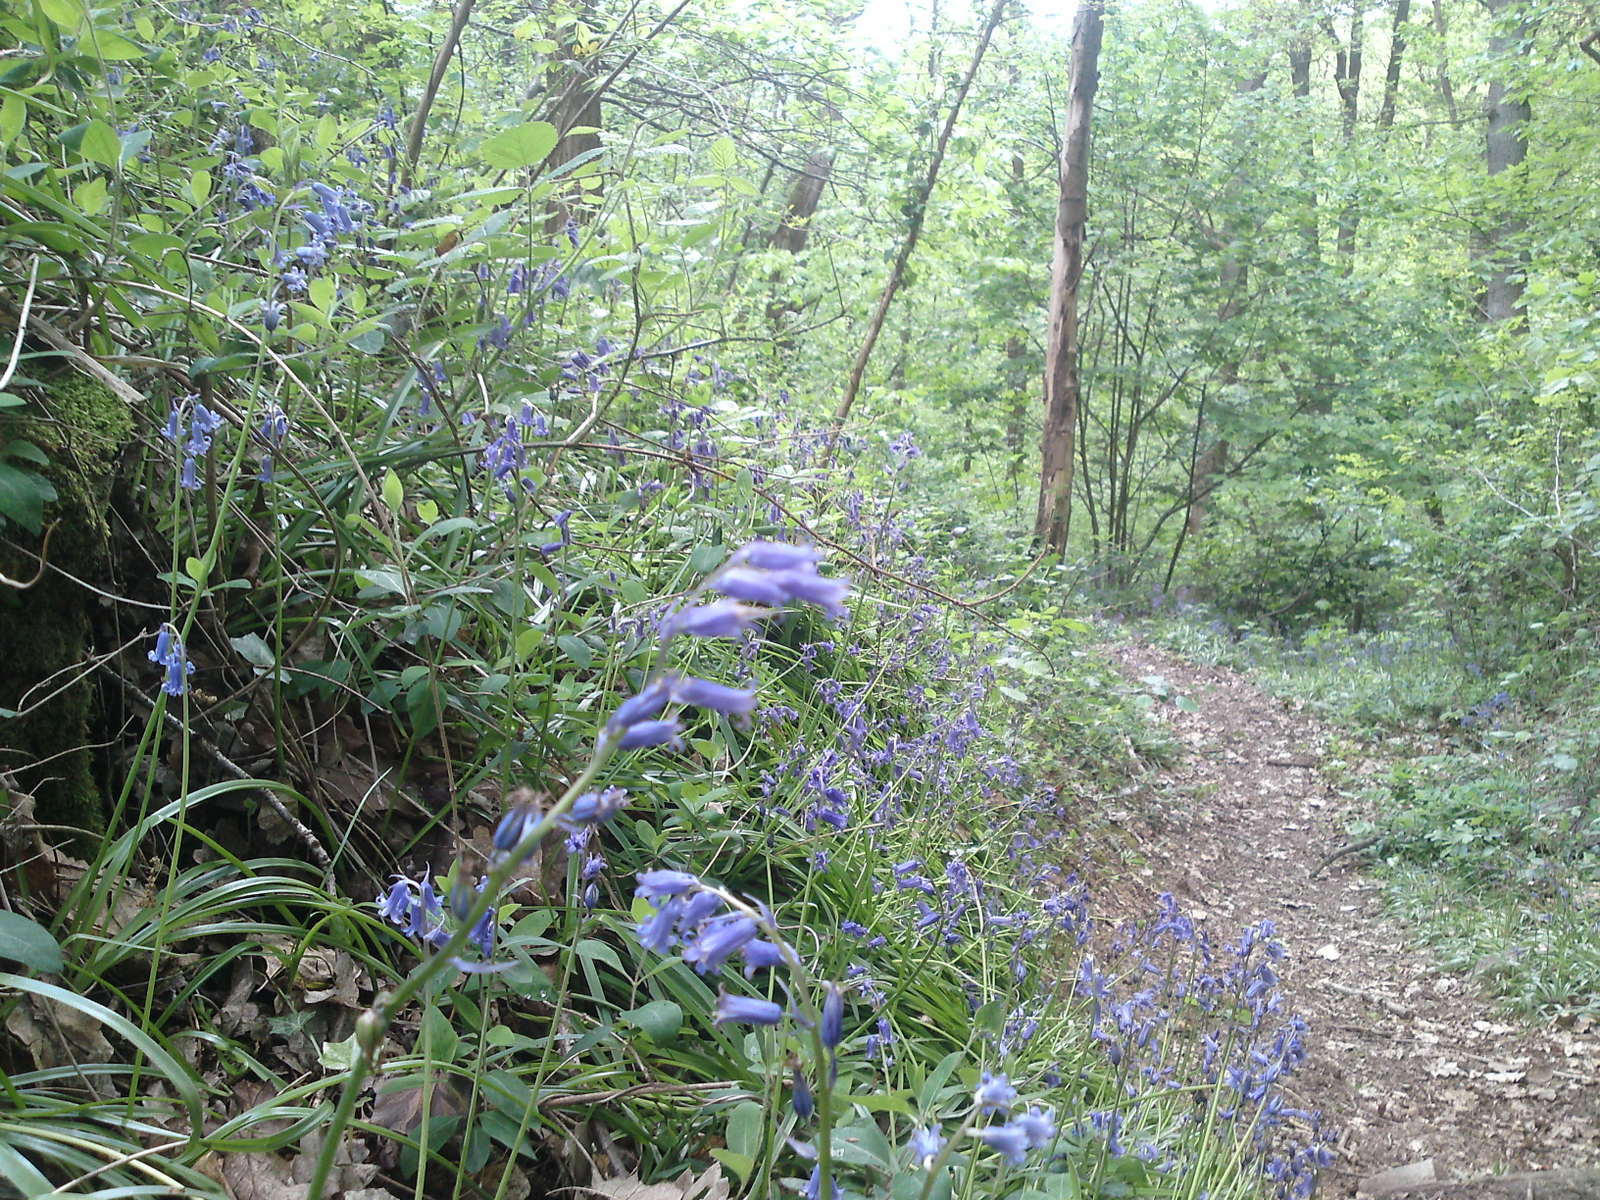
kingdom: Plantae
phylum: Tracheophyta
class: Liliopsida
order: Asparagales
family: Asparagaceae
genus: Hyacinthoides
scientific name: Hyacinthoides non-scripta
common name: Bluebell
